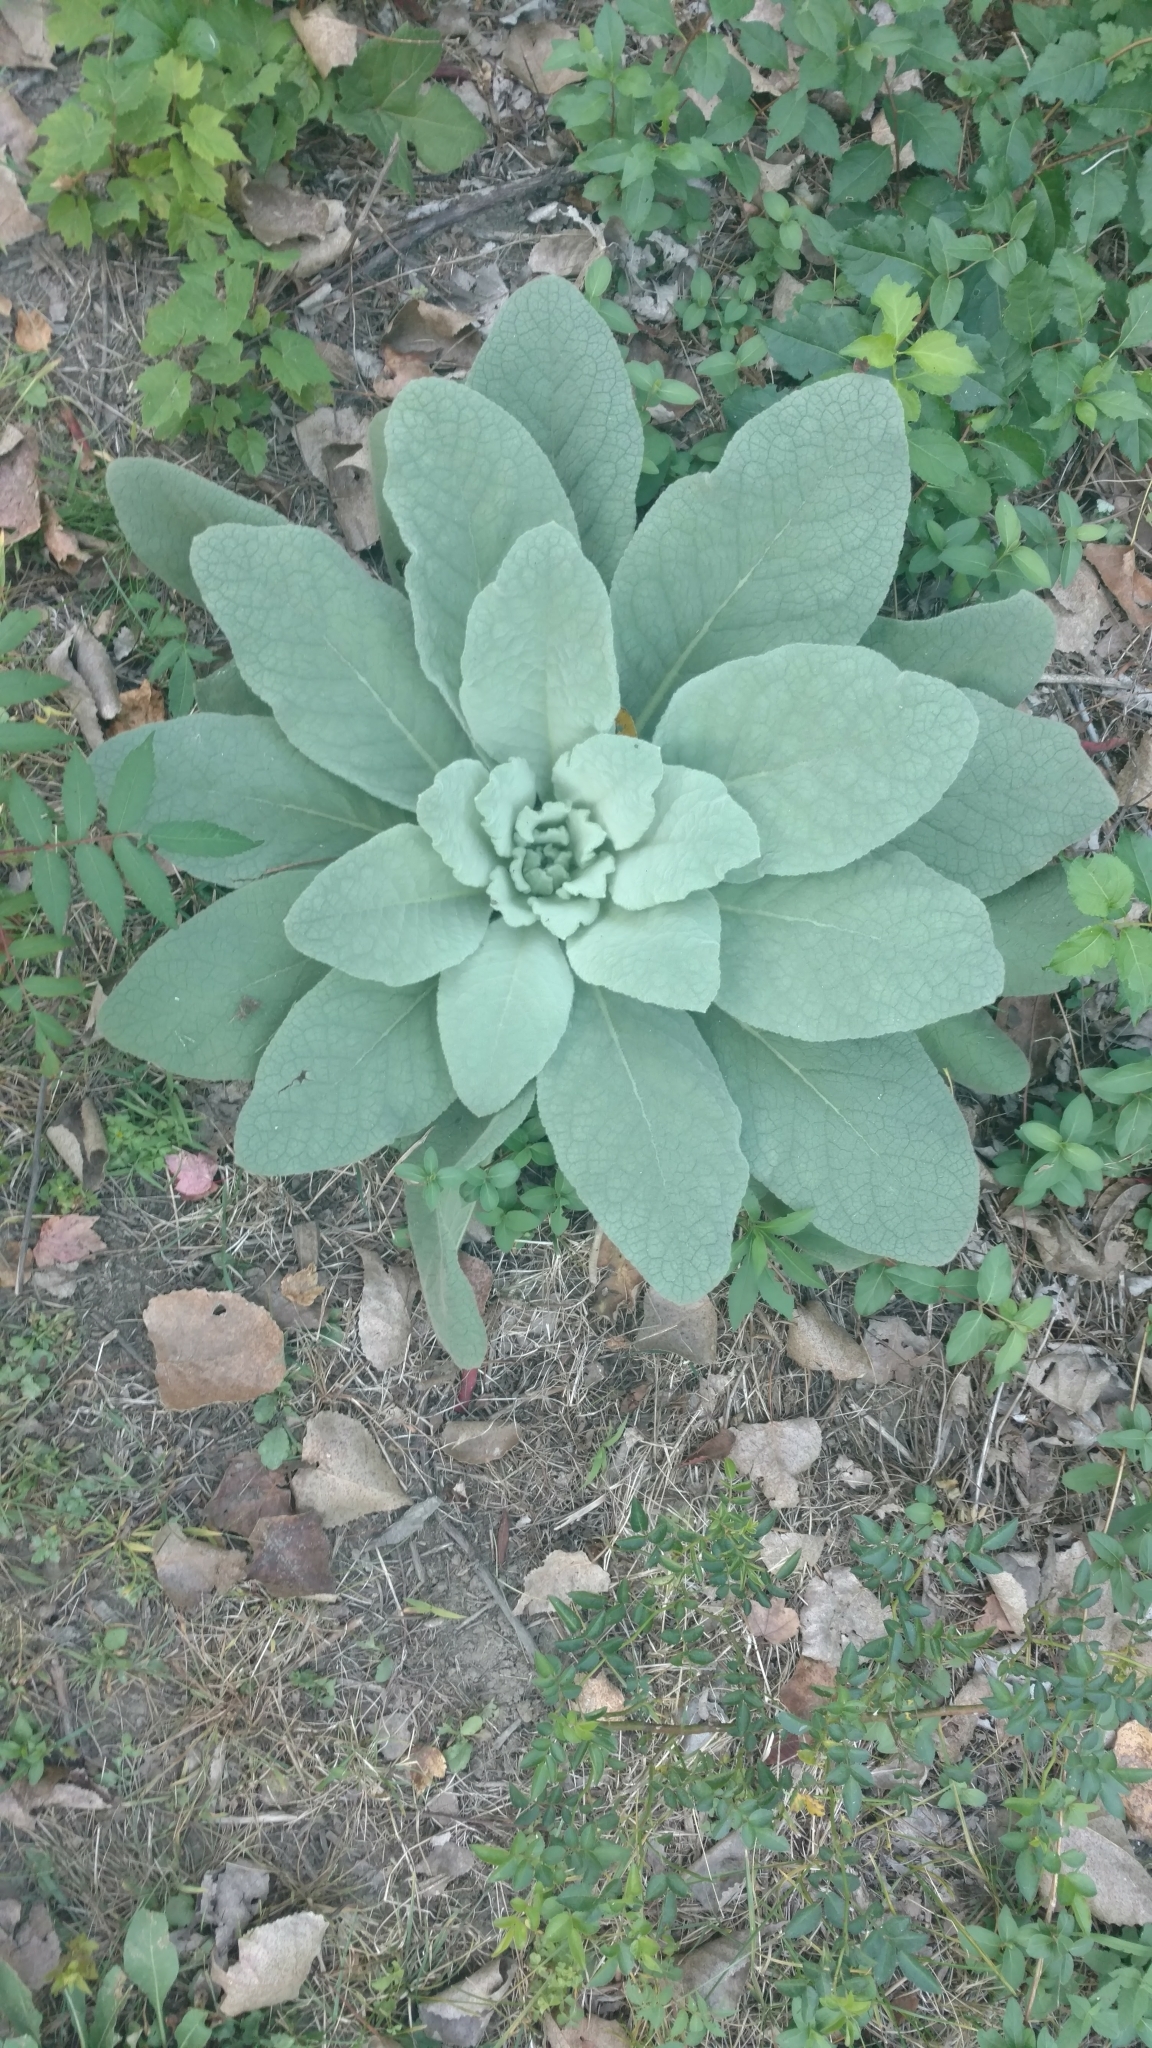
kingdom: Plantae
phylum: Tracheophyta
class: Magnoliopsida
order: Lamiales
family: Scrophulariaceae
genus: Verbascum
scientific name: Verbascum thapsus
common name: Common mullein
